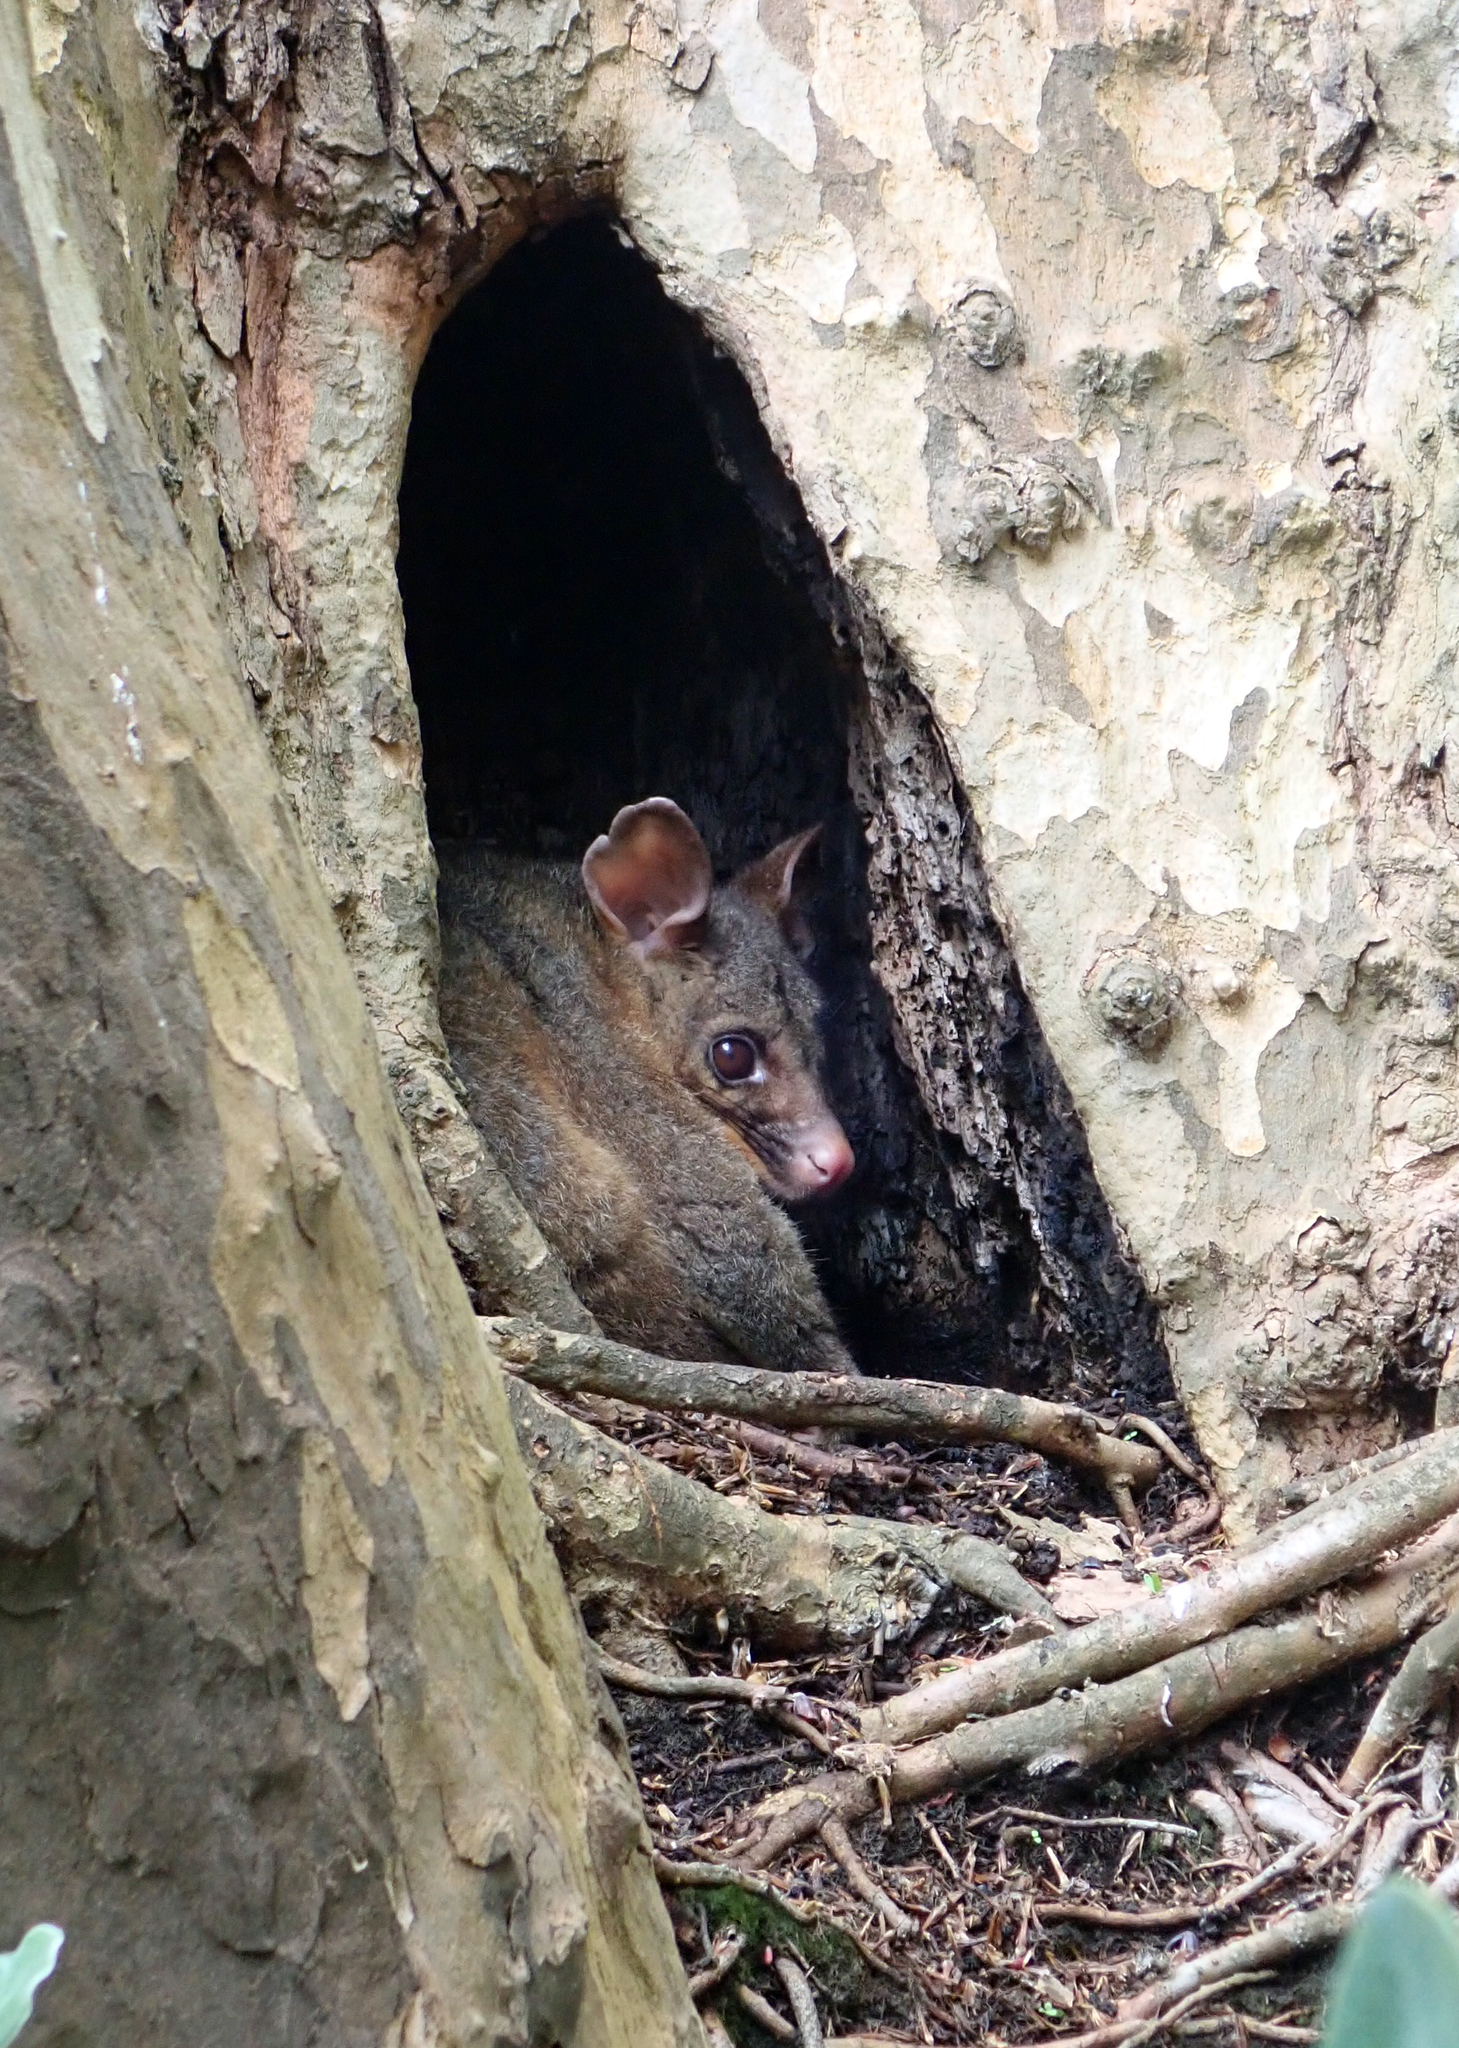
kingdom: Animalia
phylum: Chordata
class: Mammalia
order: Diprotodontia
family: Phalangeridae
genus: Trichosurus
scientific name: Trichosurus vulpecula
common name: Common brushtail
